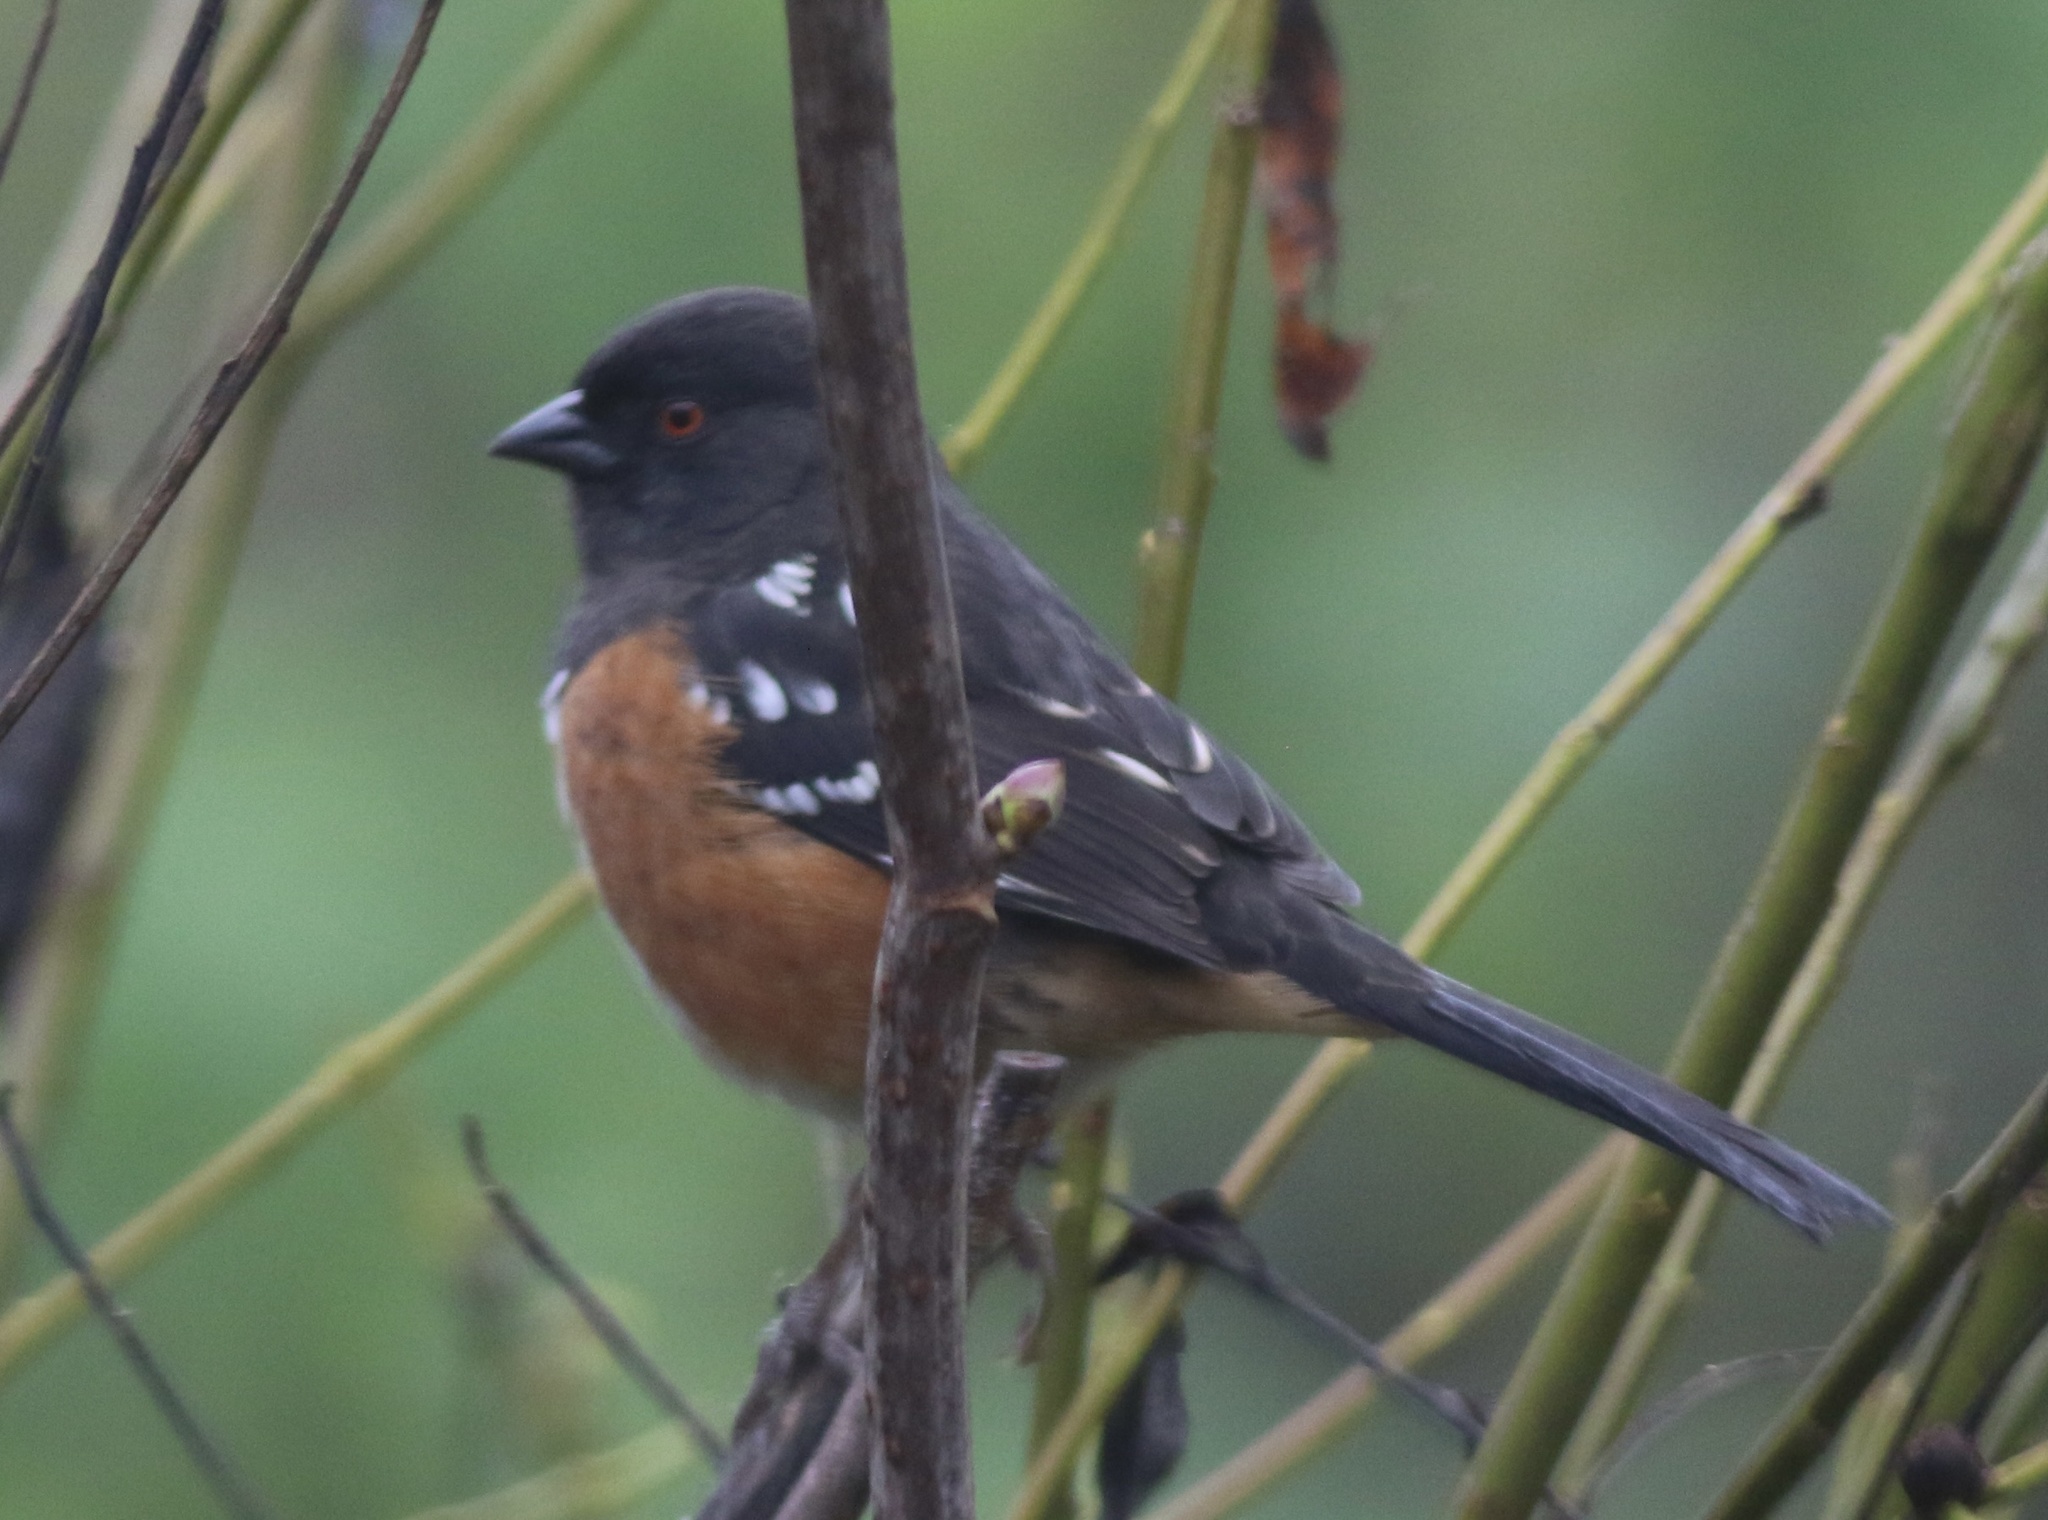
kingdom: Animalia
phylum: Chordata
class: Aves
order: Passeriformes
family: Passerellidae
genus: Pipilo
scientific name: Pipilo maculatus
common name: Spotted towhee
